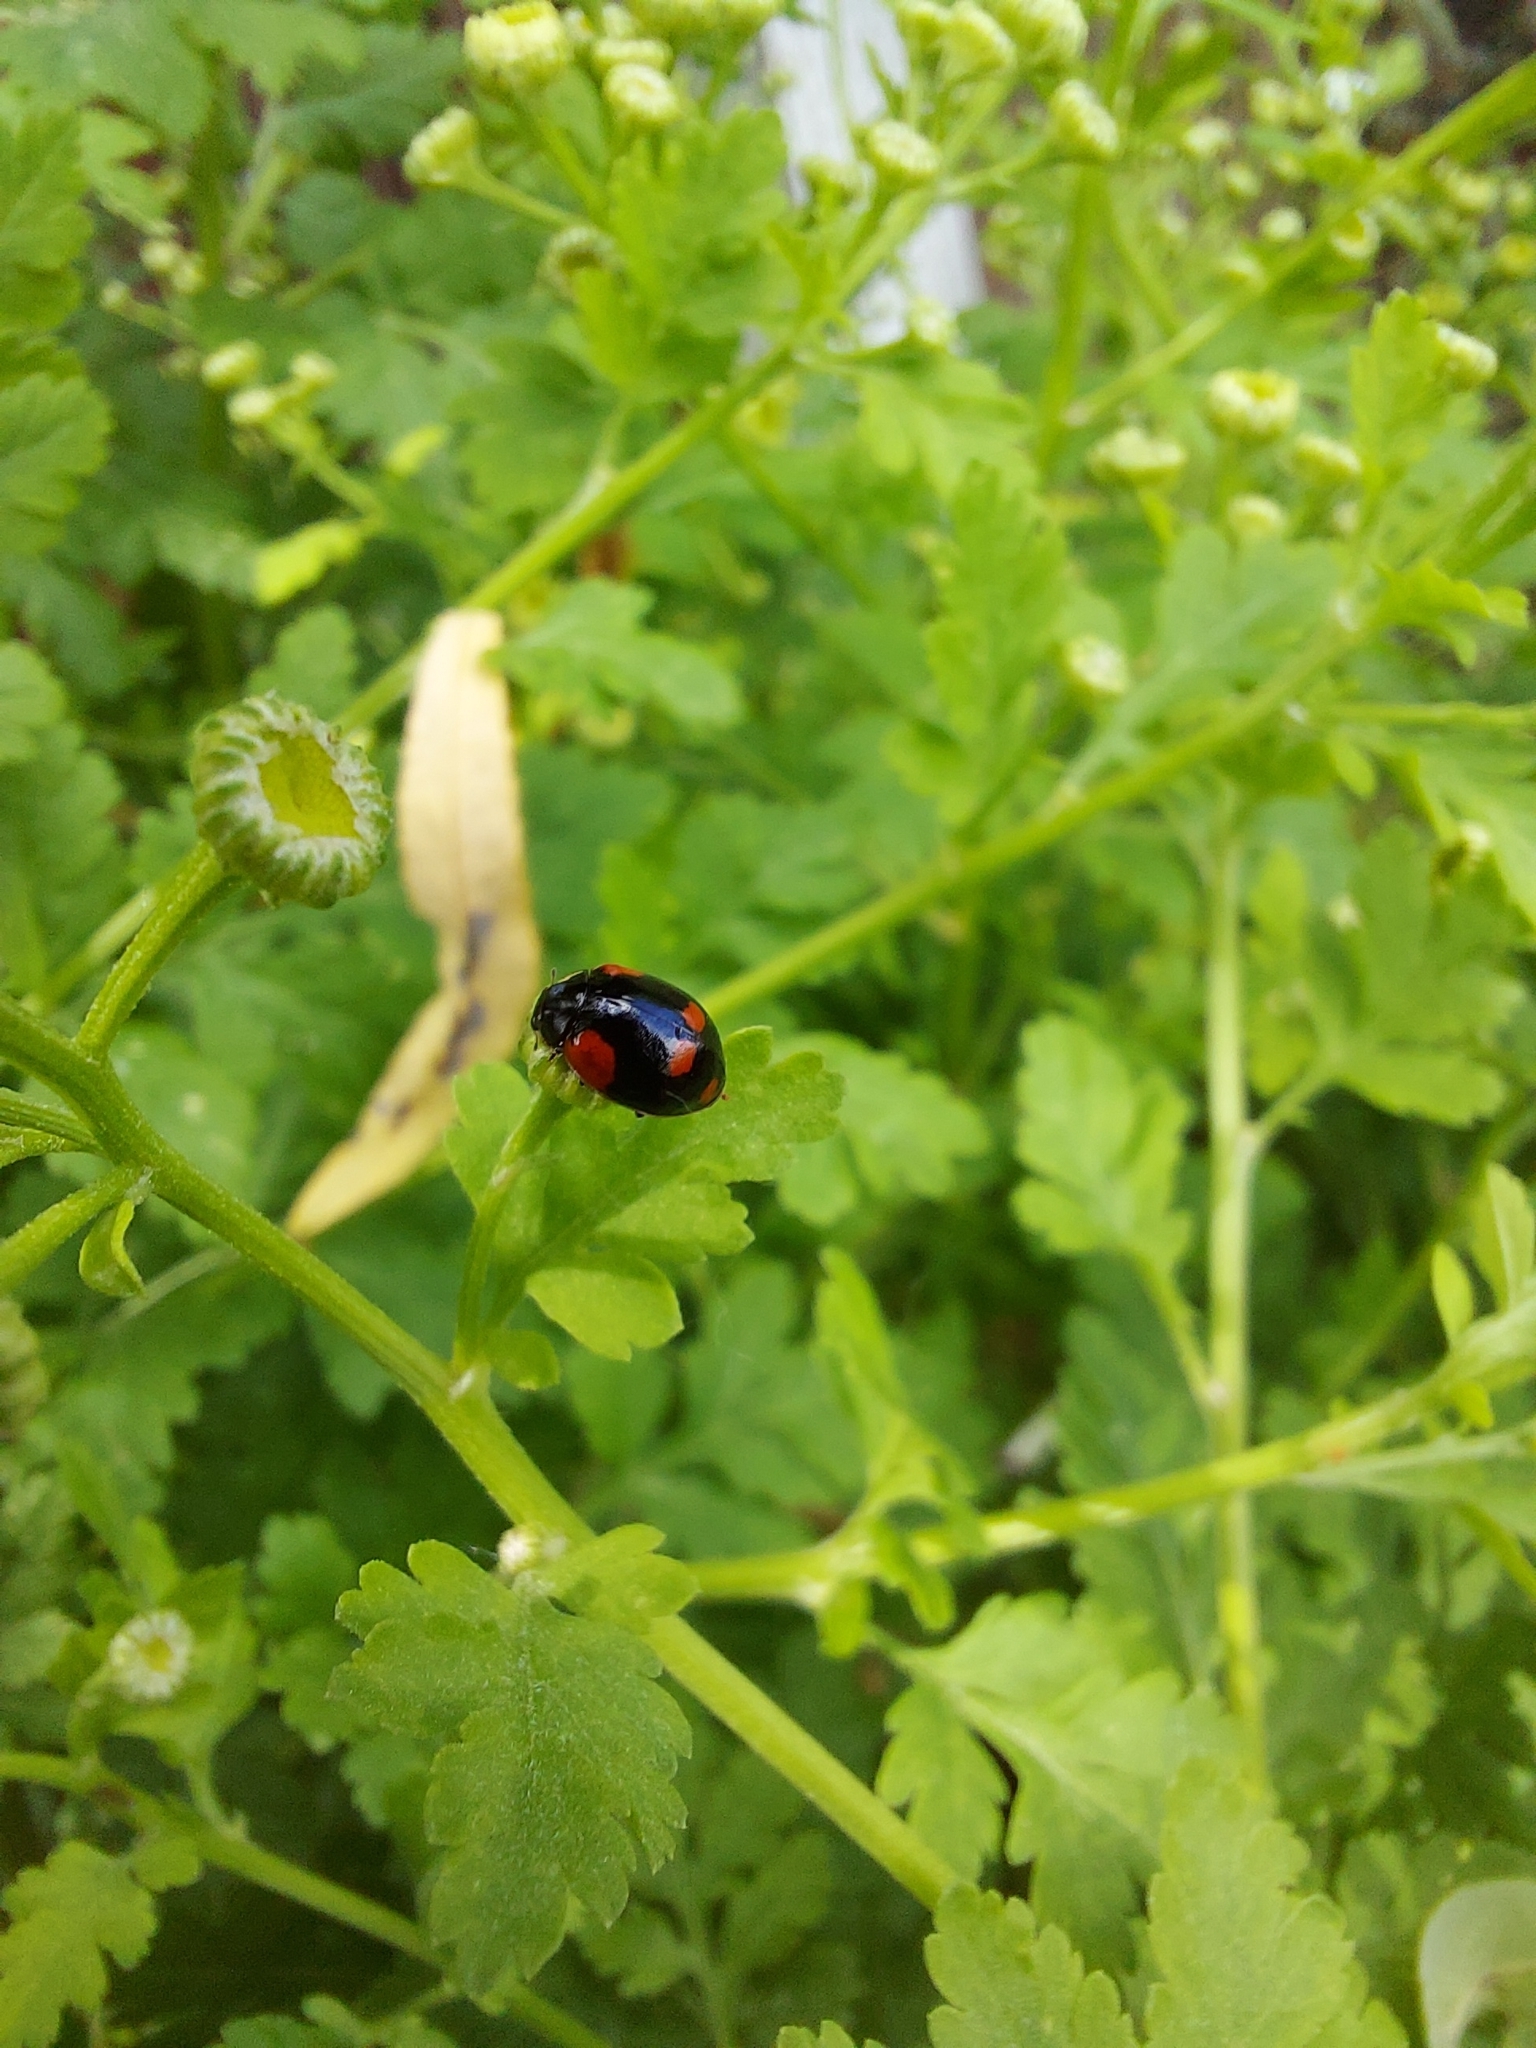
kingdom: Animalia
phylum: Arthropoda
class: Insecta
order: Coleoptera
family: Coccinellidae
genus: Adalia
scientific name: Adalia bipunctata
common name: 2-spot ladybird
